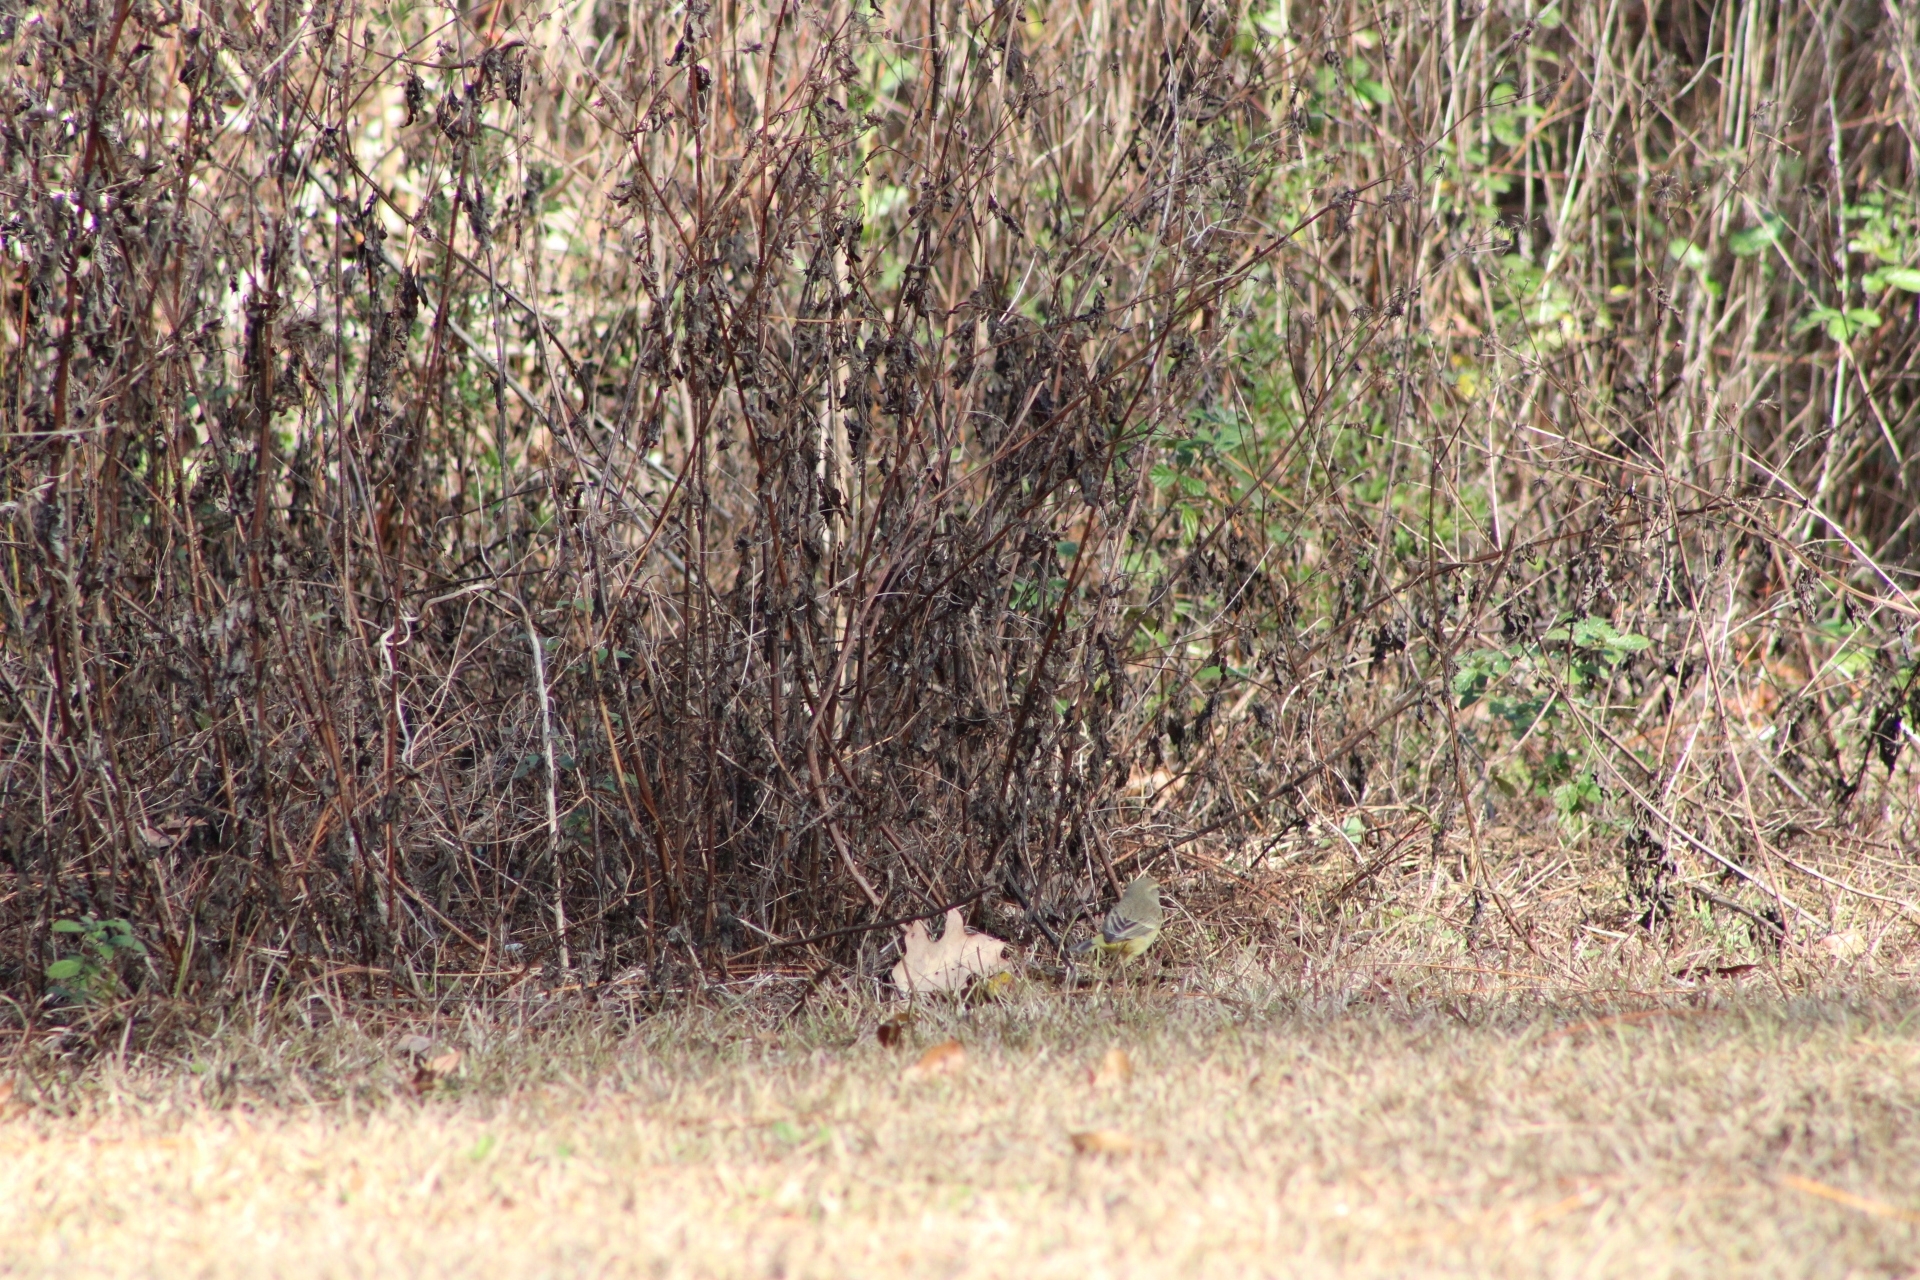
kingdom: Animalia
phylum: Chordata
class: Aves
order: Passeriformes
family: Parulidae
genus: Setophaga
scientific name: Setophaga palmarum
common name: Palm warbler
